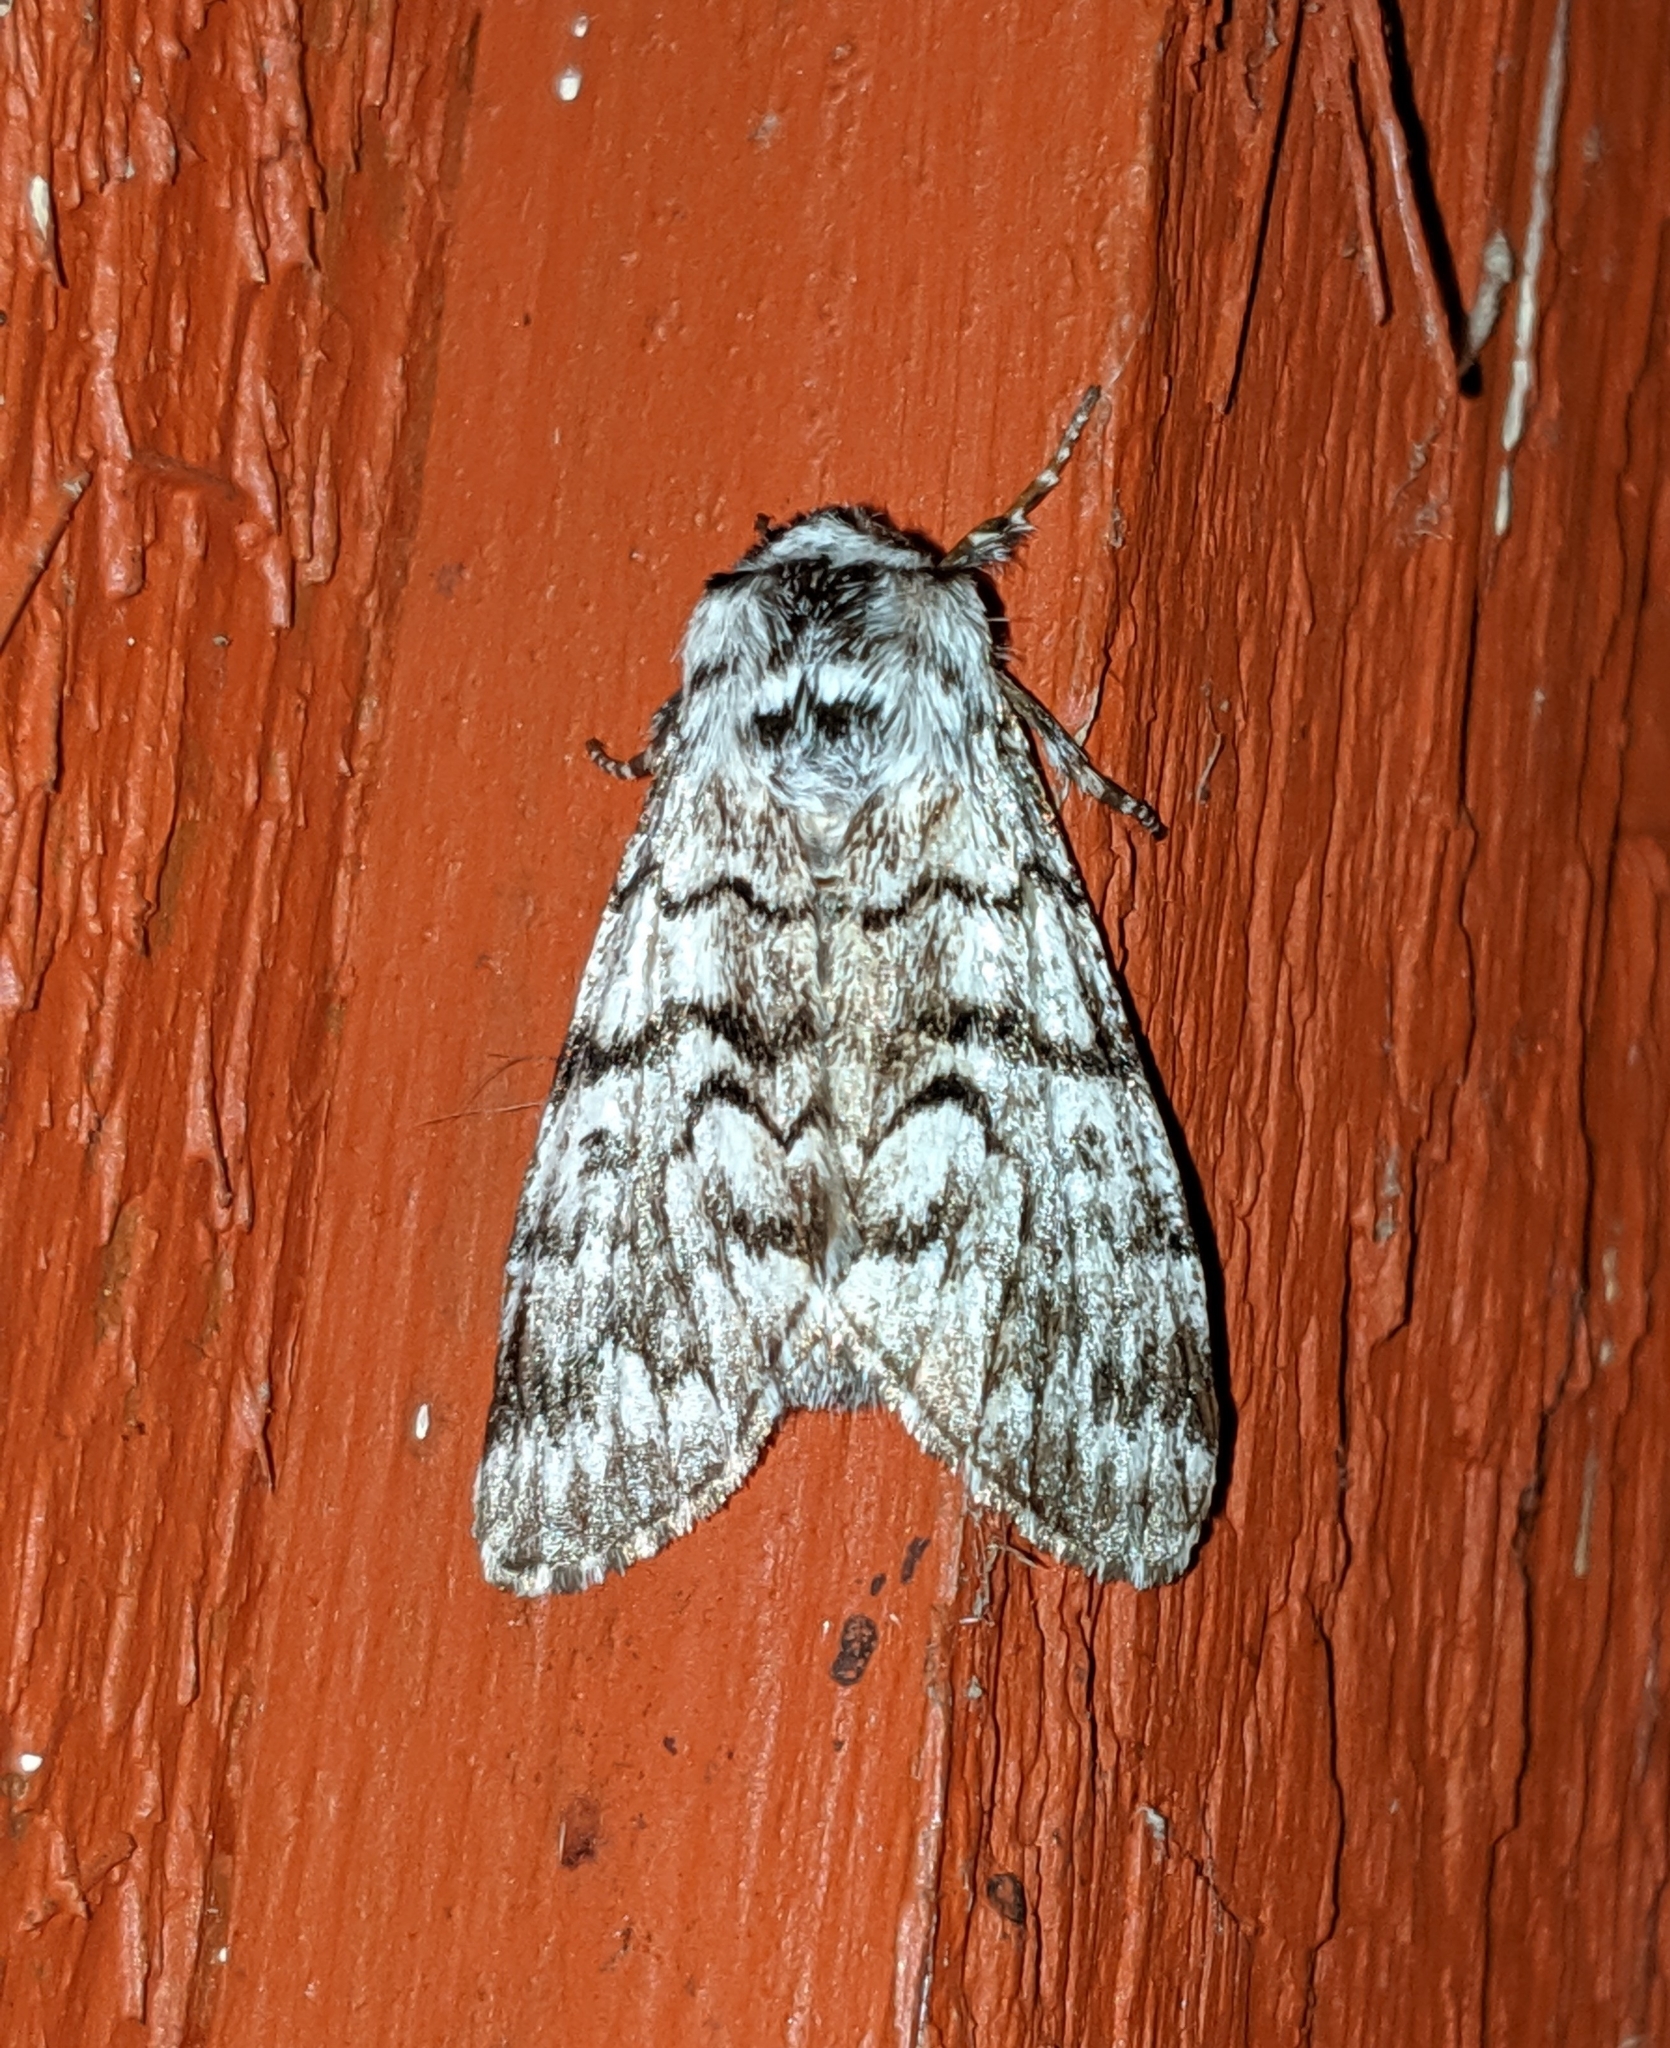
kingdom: Animalia
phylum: Arthropoda
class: Insecta
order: Lepidoptera
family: Noctuidae
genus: Panthea
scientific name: Panthea virginarius
